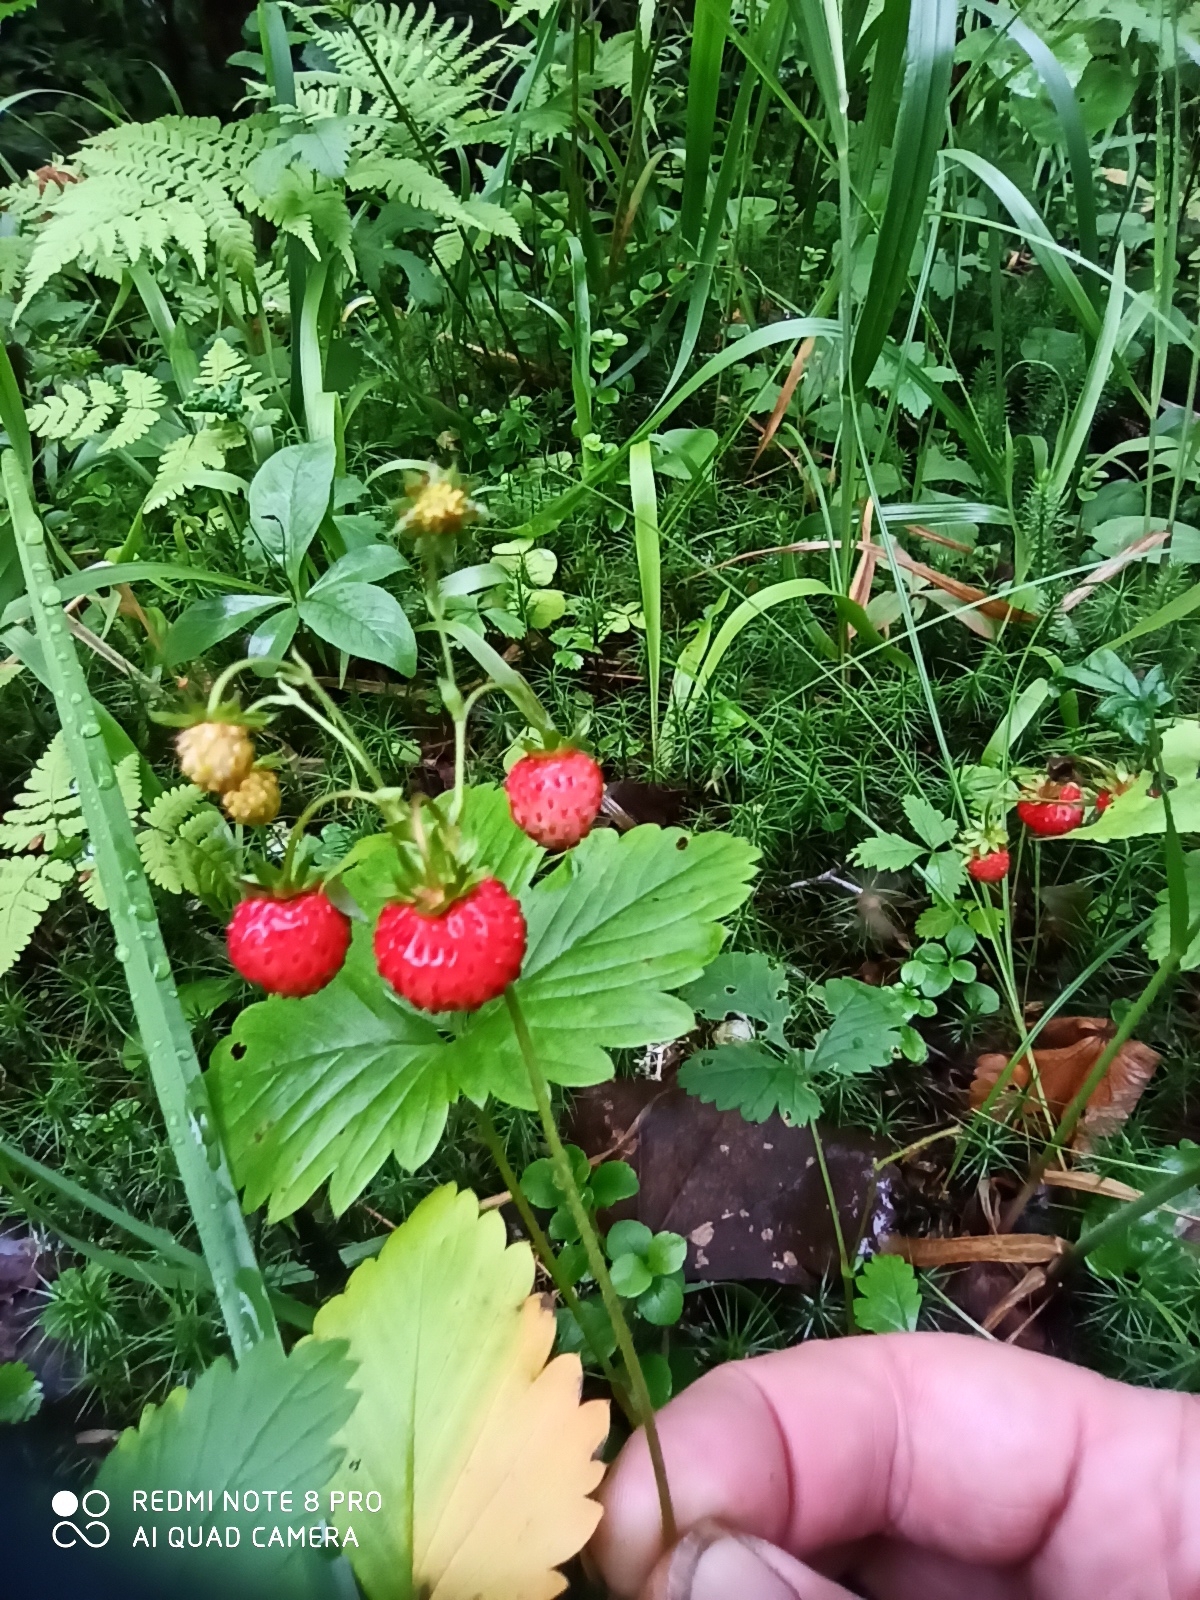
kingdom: Plantae
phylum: Tracheophyta
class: Magnoliopsida
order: Rosales
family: Rosaceae
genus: Fragaria
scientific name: Fragaria vesca
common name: Wild strawberry
